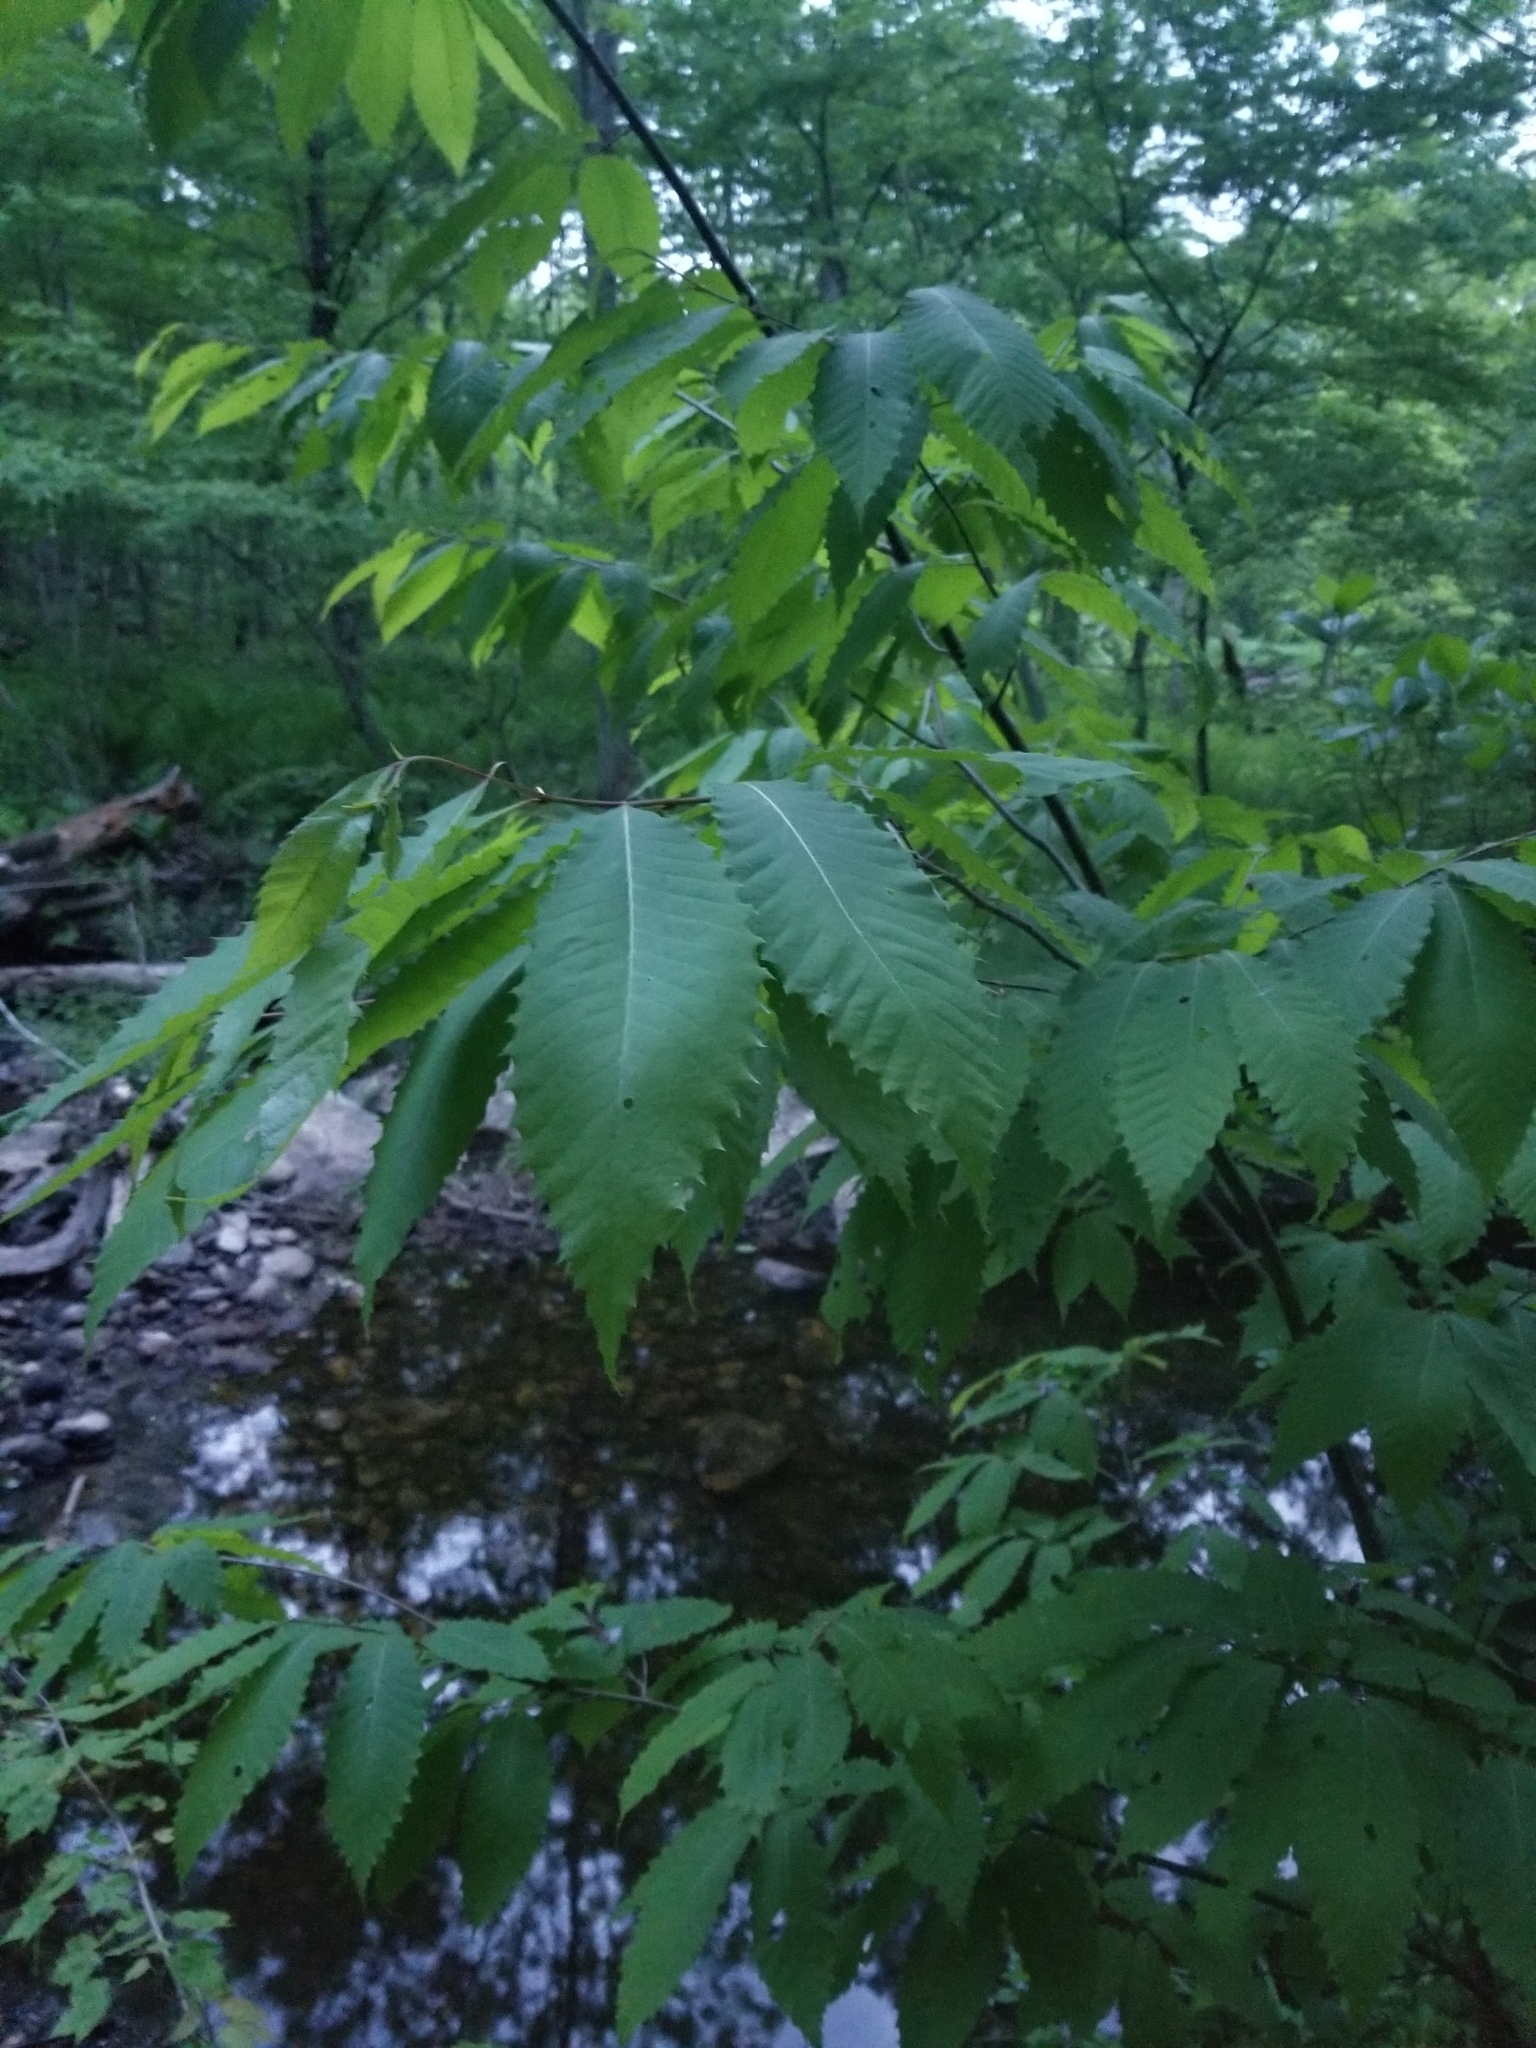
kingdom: Plantae
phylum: Tracheophyta
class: Magnoliopsida
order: Fagales
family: Fagaceae
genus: Castanea
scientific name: Castanea dentata
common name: American chestnut
